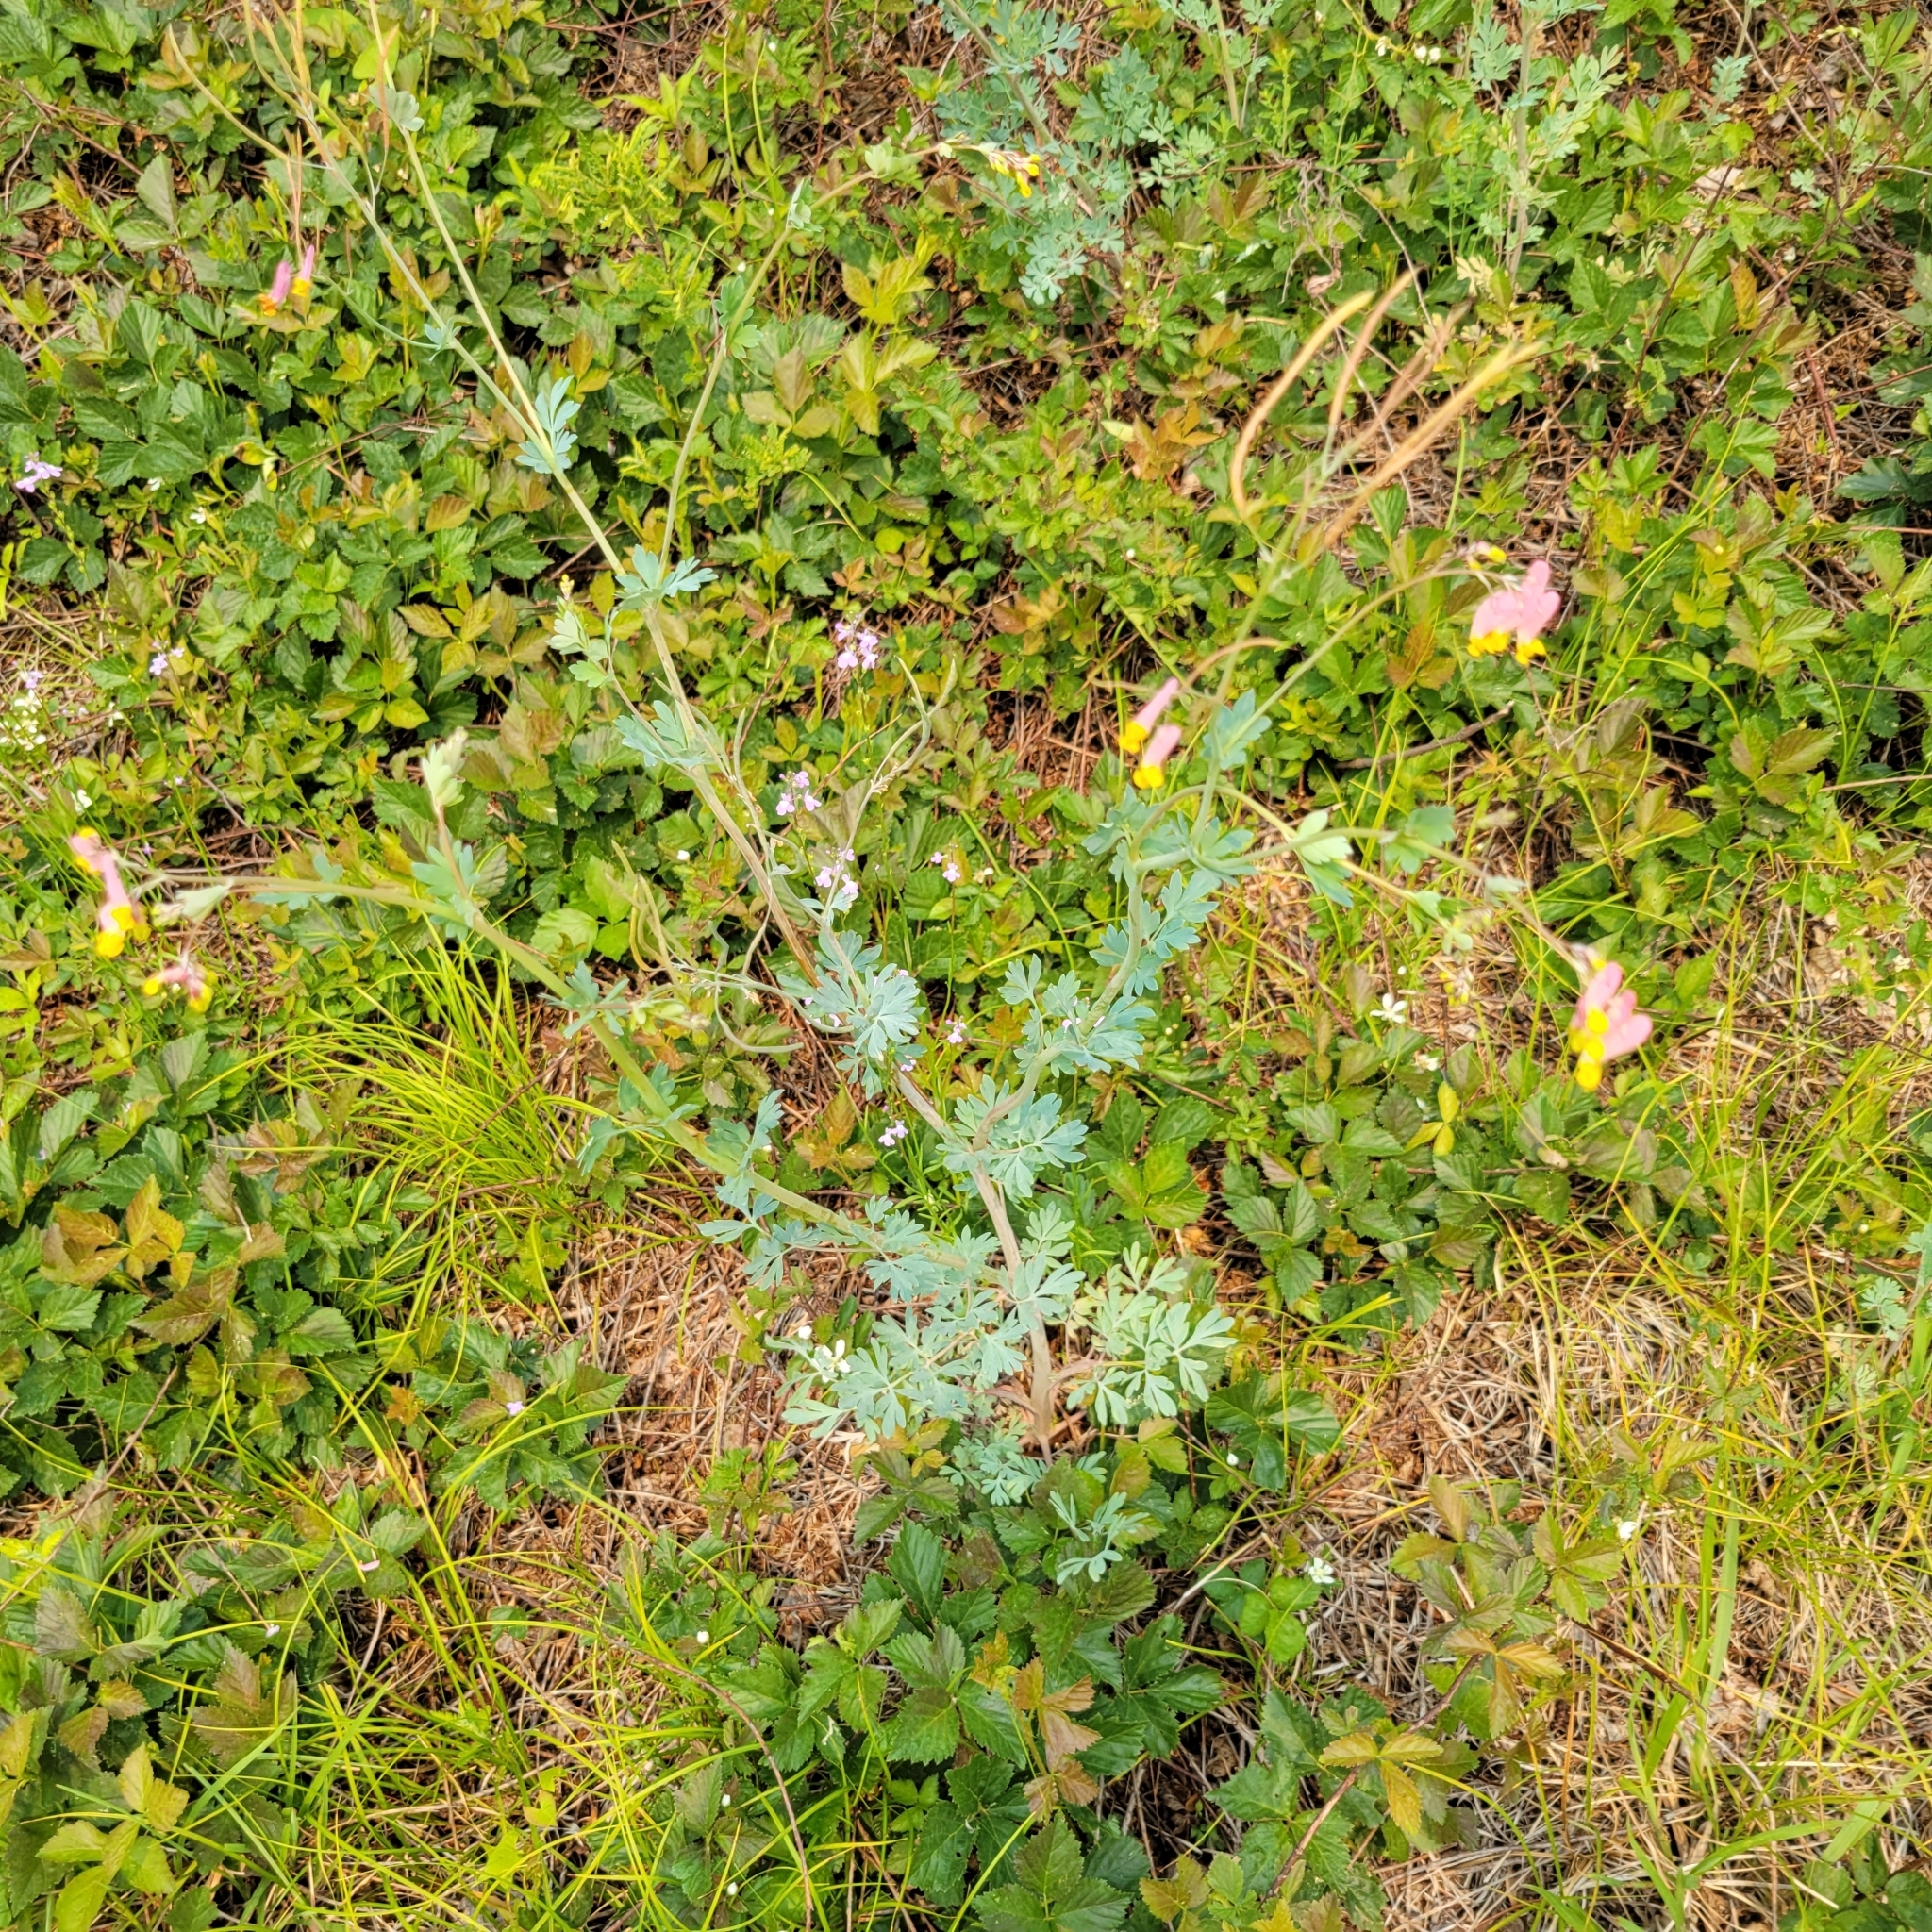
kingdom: Plantae
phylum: Tracheophyta
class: Magnoliopsida
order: Ranunculales
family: Papaveraceae
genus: Capnoides
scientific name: Capnoides sempervirens
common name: Rock harlequin
